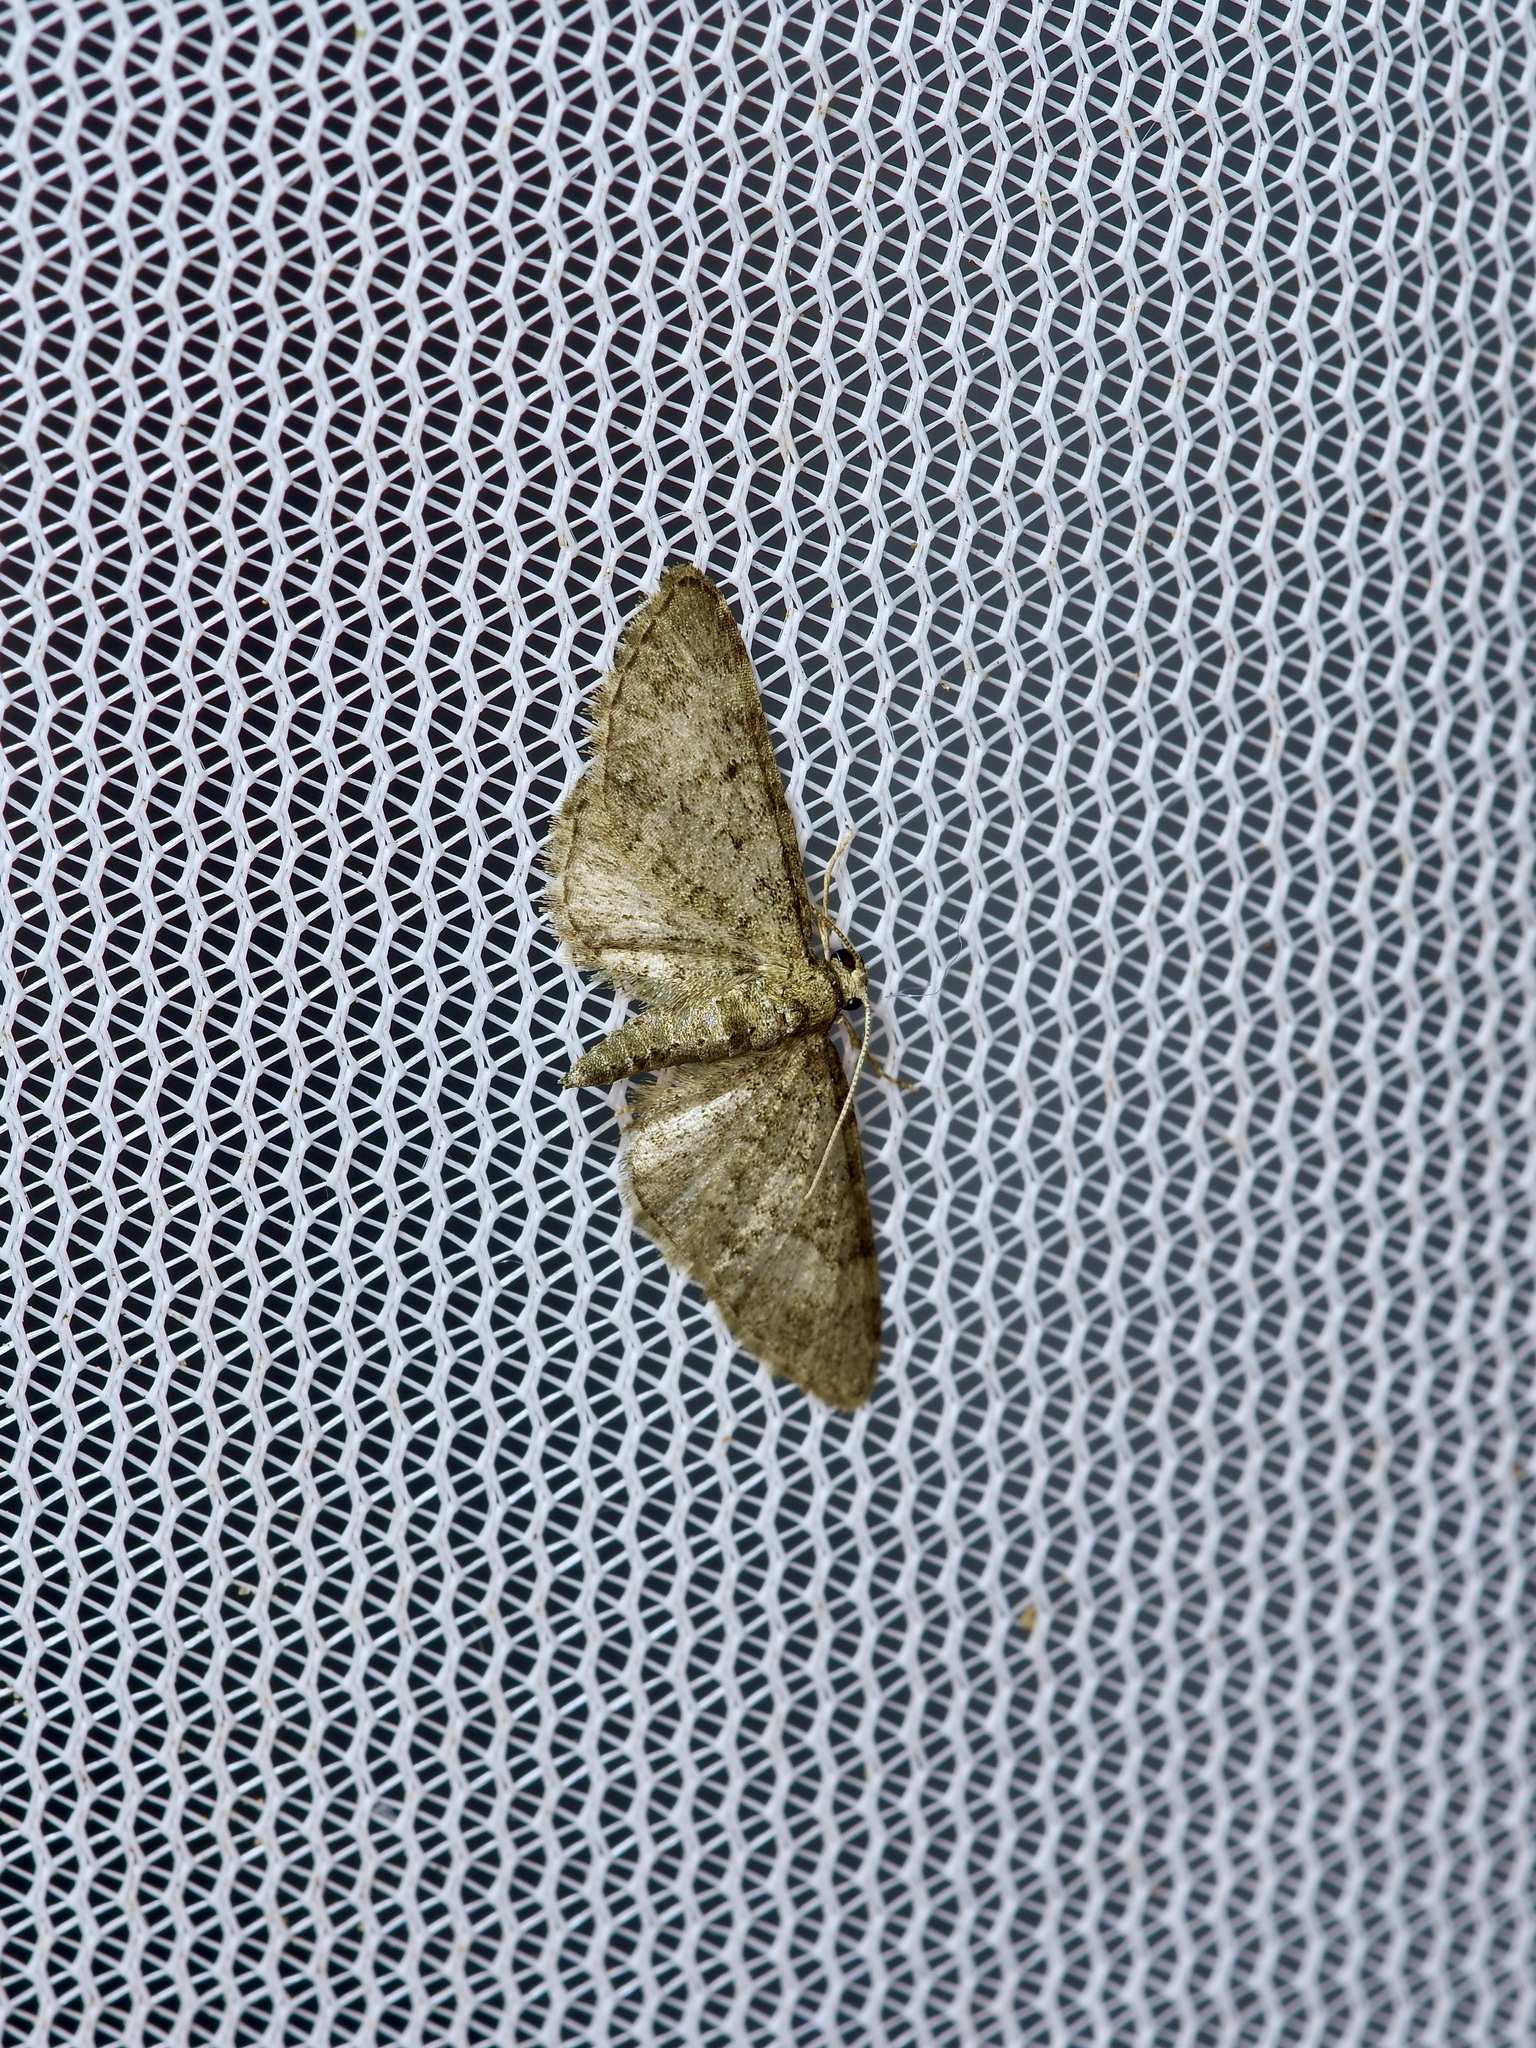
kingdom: Animalia
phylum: Arthropoda
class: Insecta
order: Lepidoptera
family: Geometridae
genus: Eupithecia
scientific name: Eupithecia miserulata
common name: Common eupithecia
